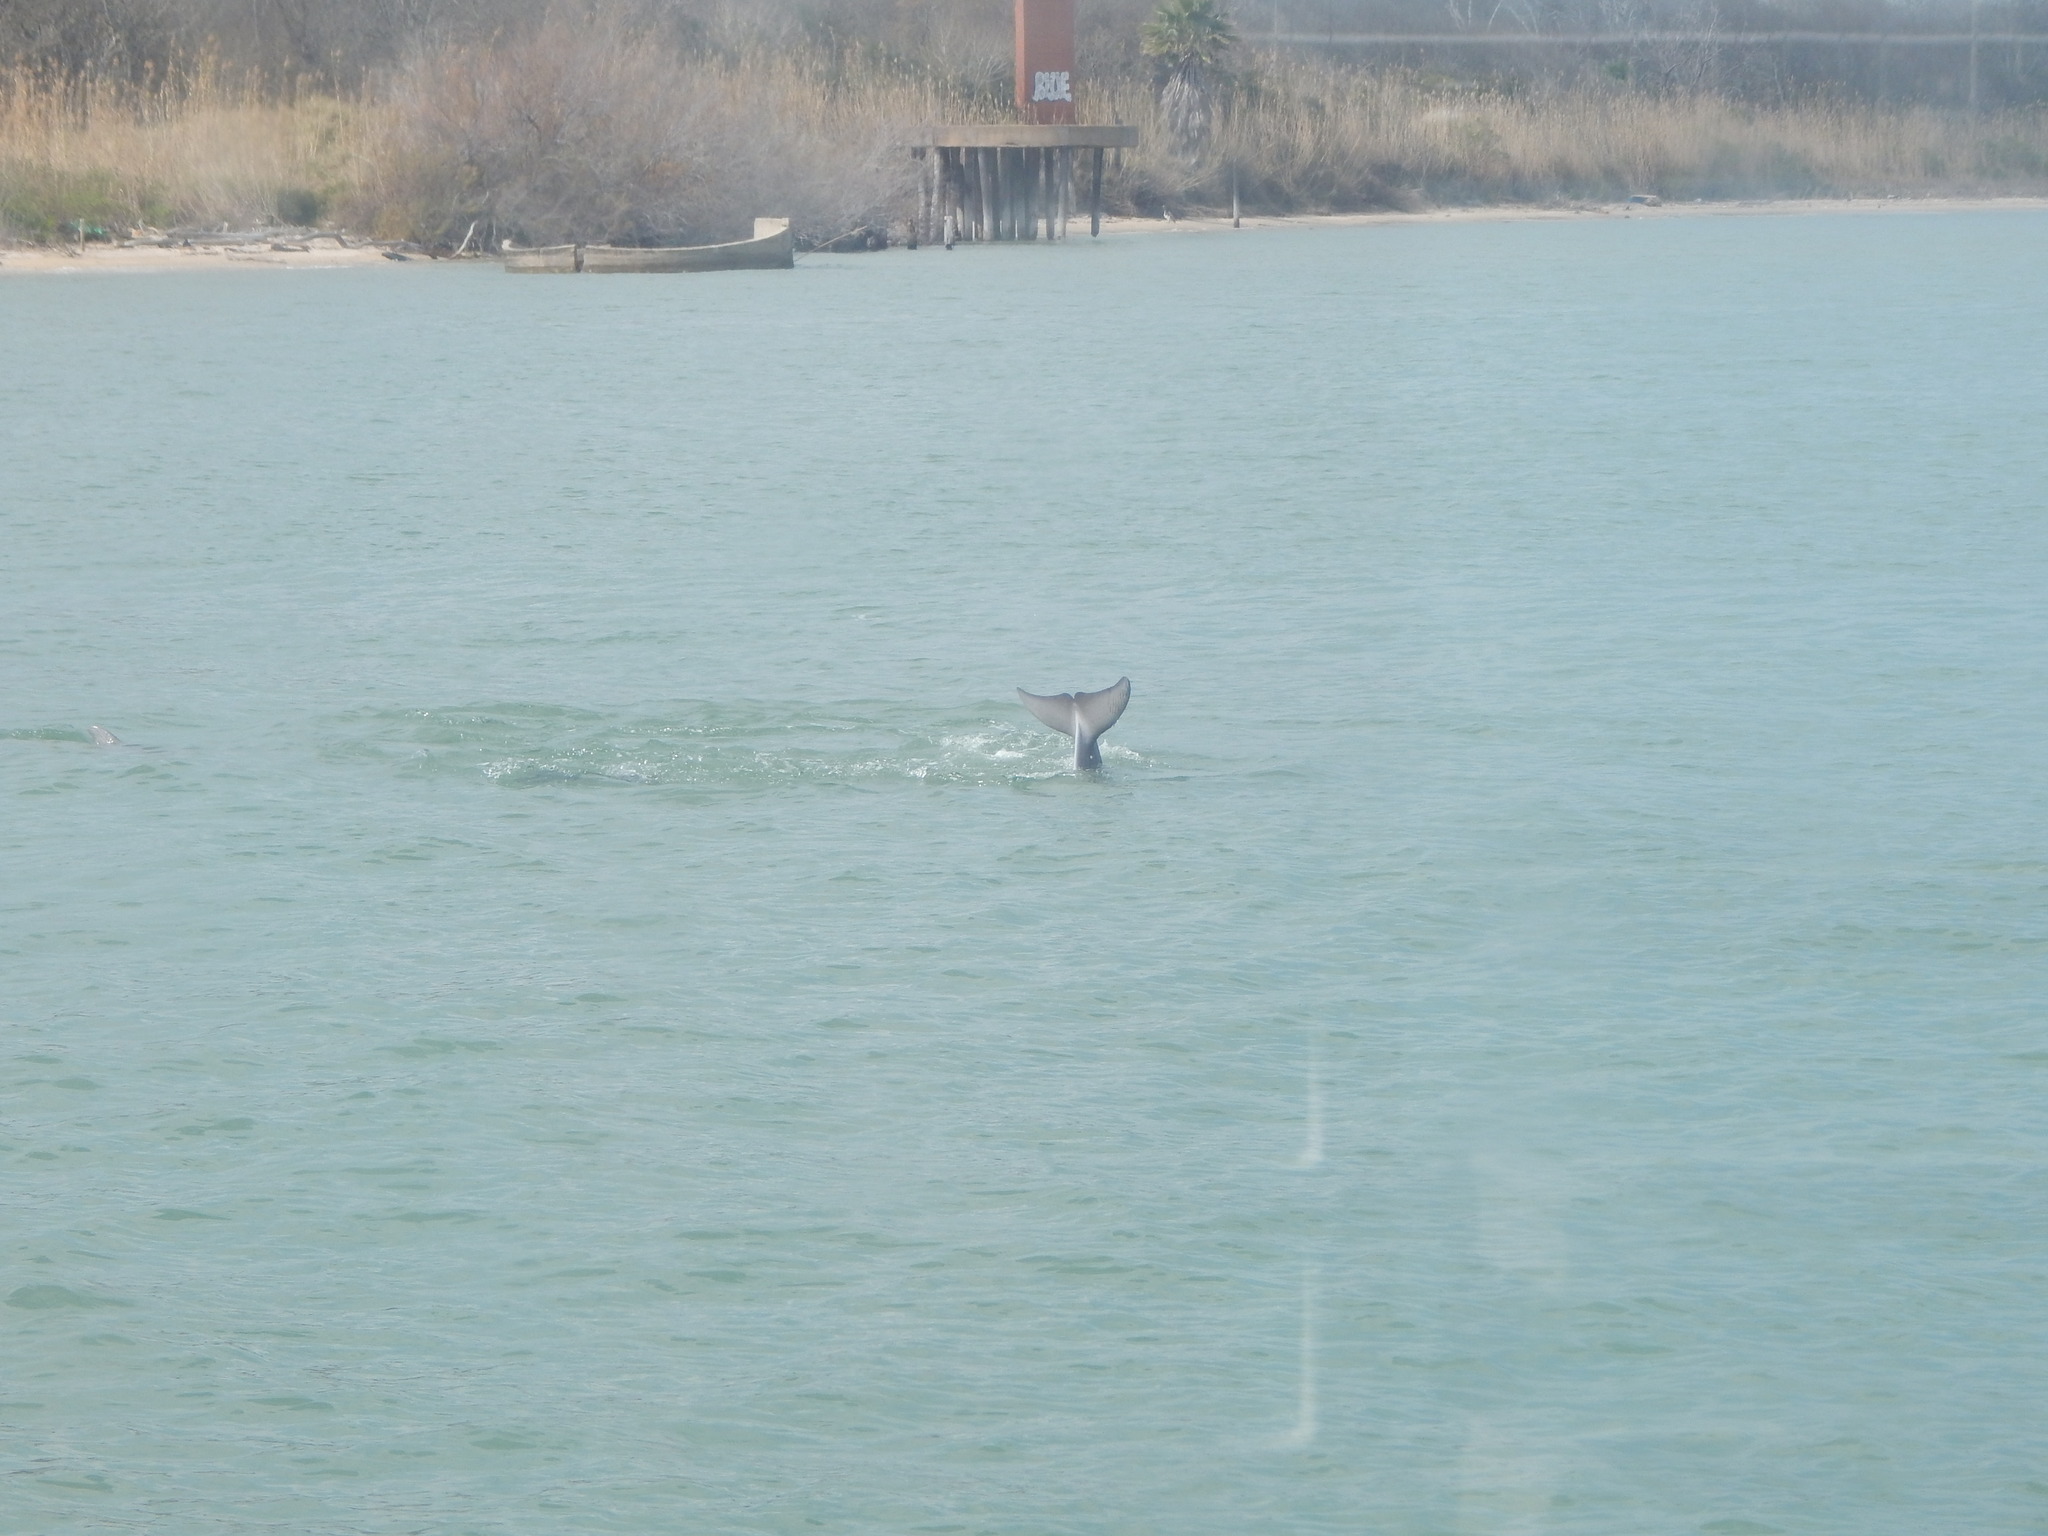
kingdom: Animalia
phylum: Chordata
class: Mammalia
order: Cetacea
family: Delphinidae
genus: Tursiops
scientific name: Tursiops truncatus
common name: Bottlenose dolphin
